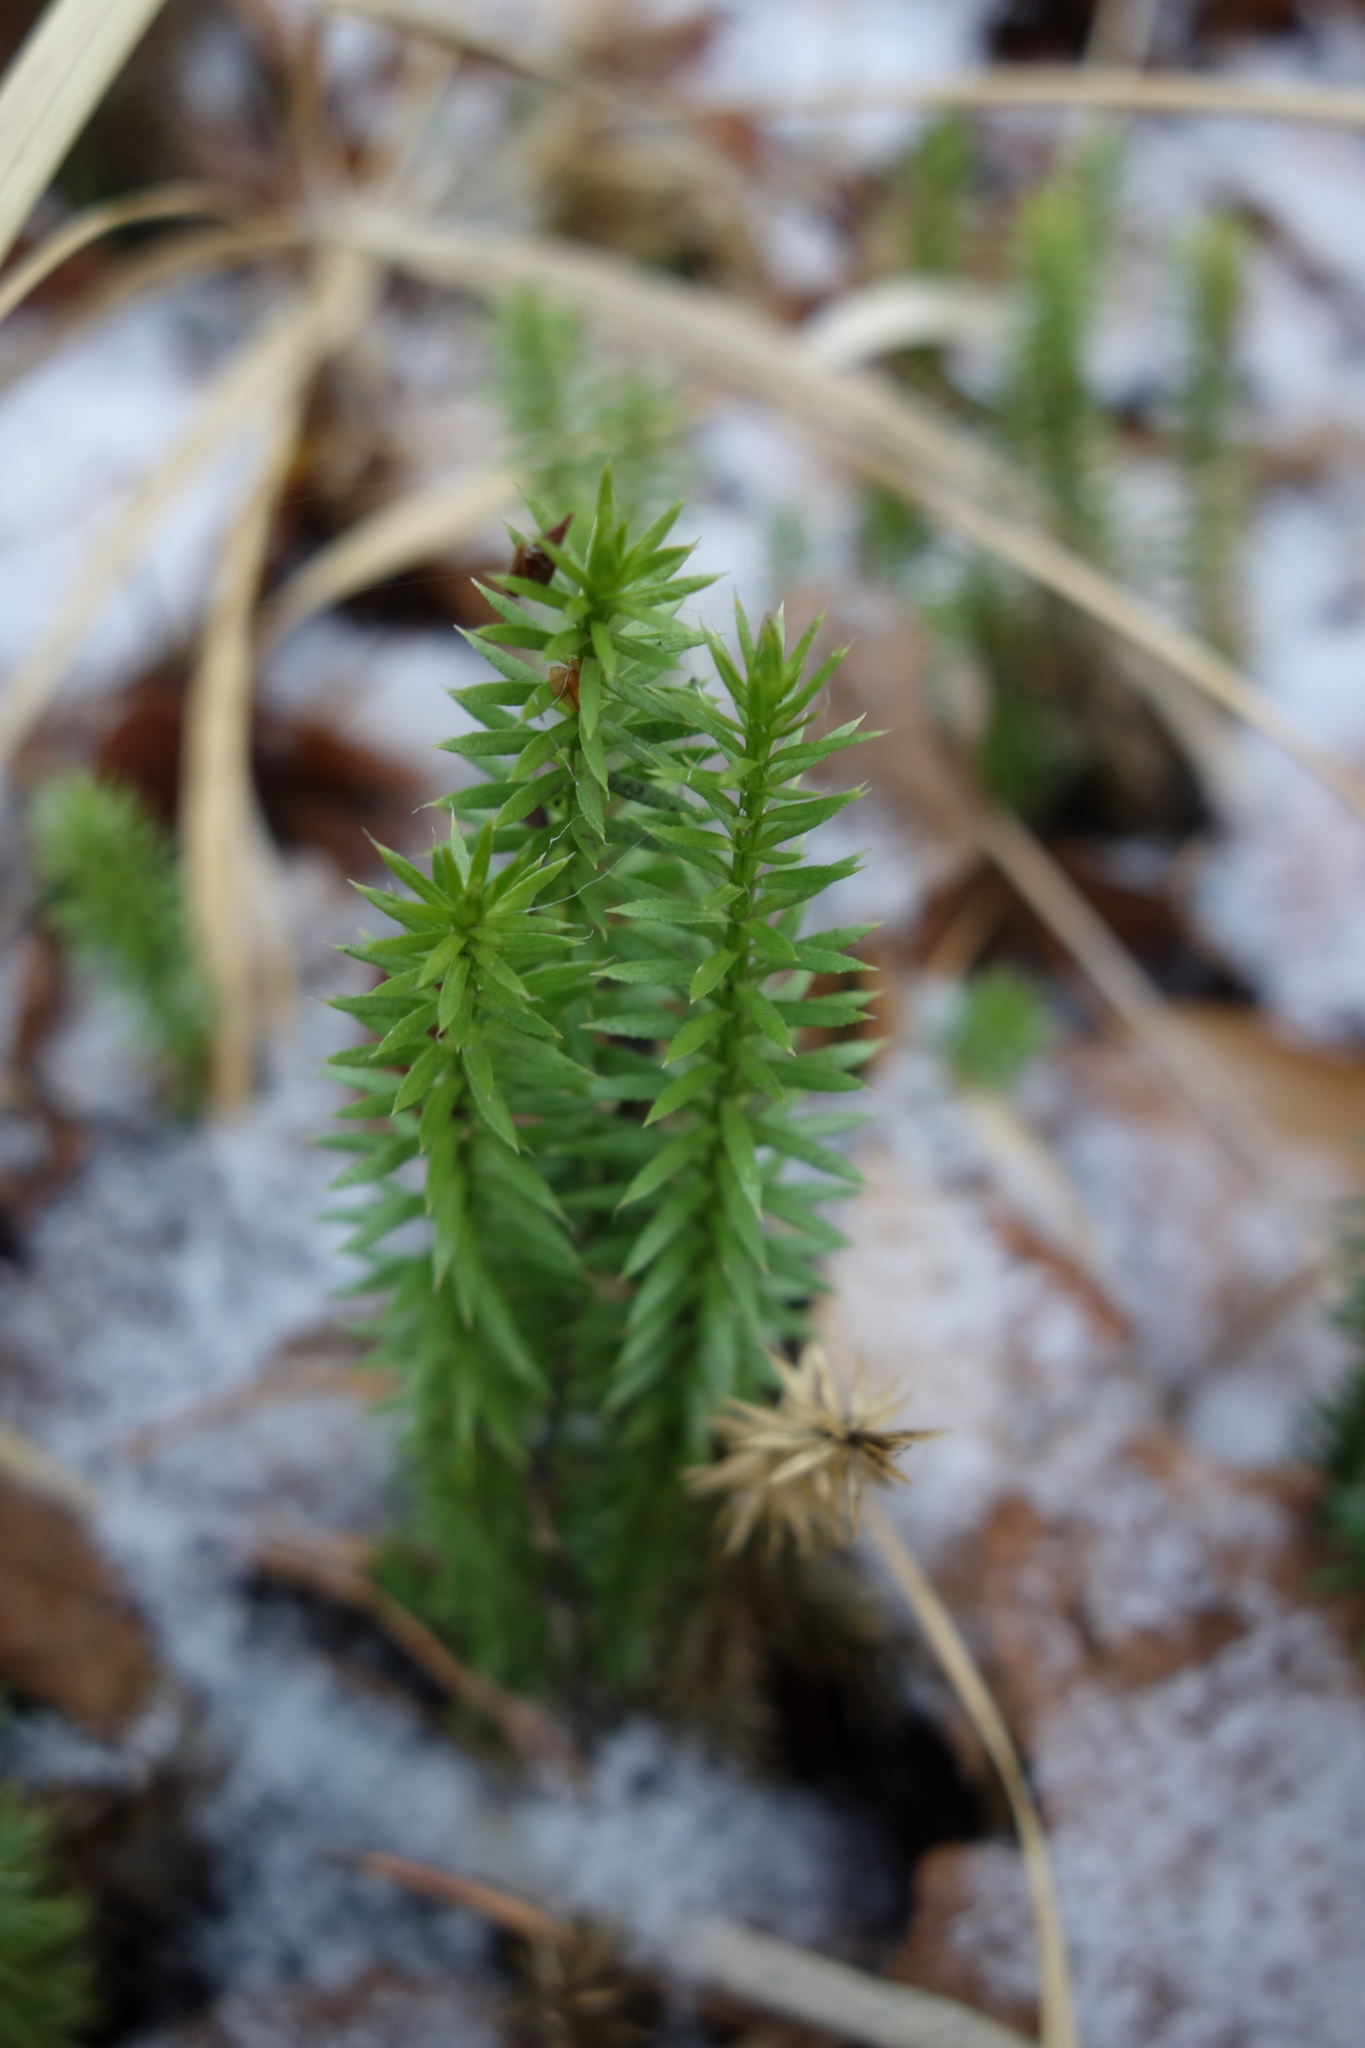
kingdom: Plantae
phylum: Tracheophyta
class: Lycopodiopsida
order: Lycopodiales
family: Lycopodiaceae
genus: Spinulum
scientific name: Spinulum annotinum
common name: Interrupted club-moss
